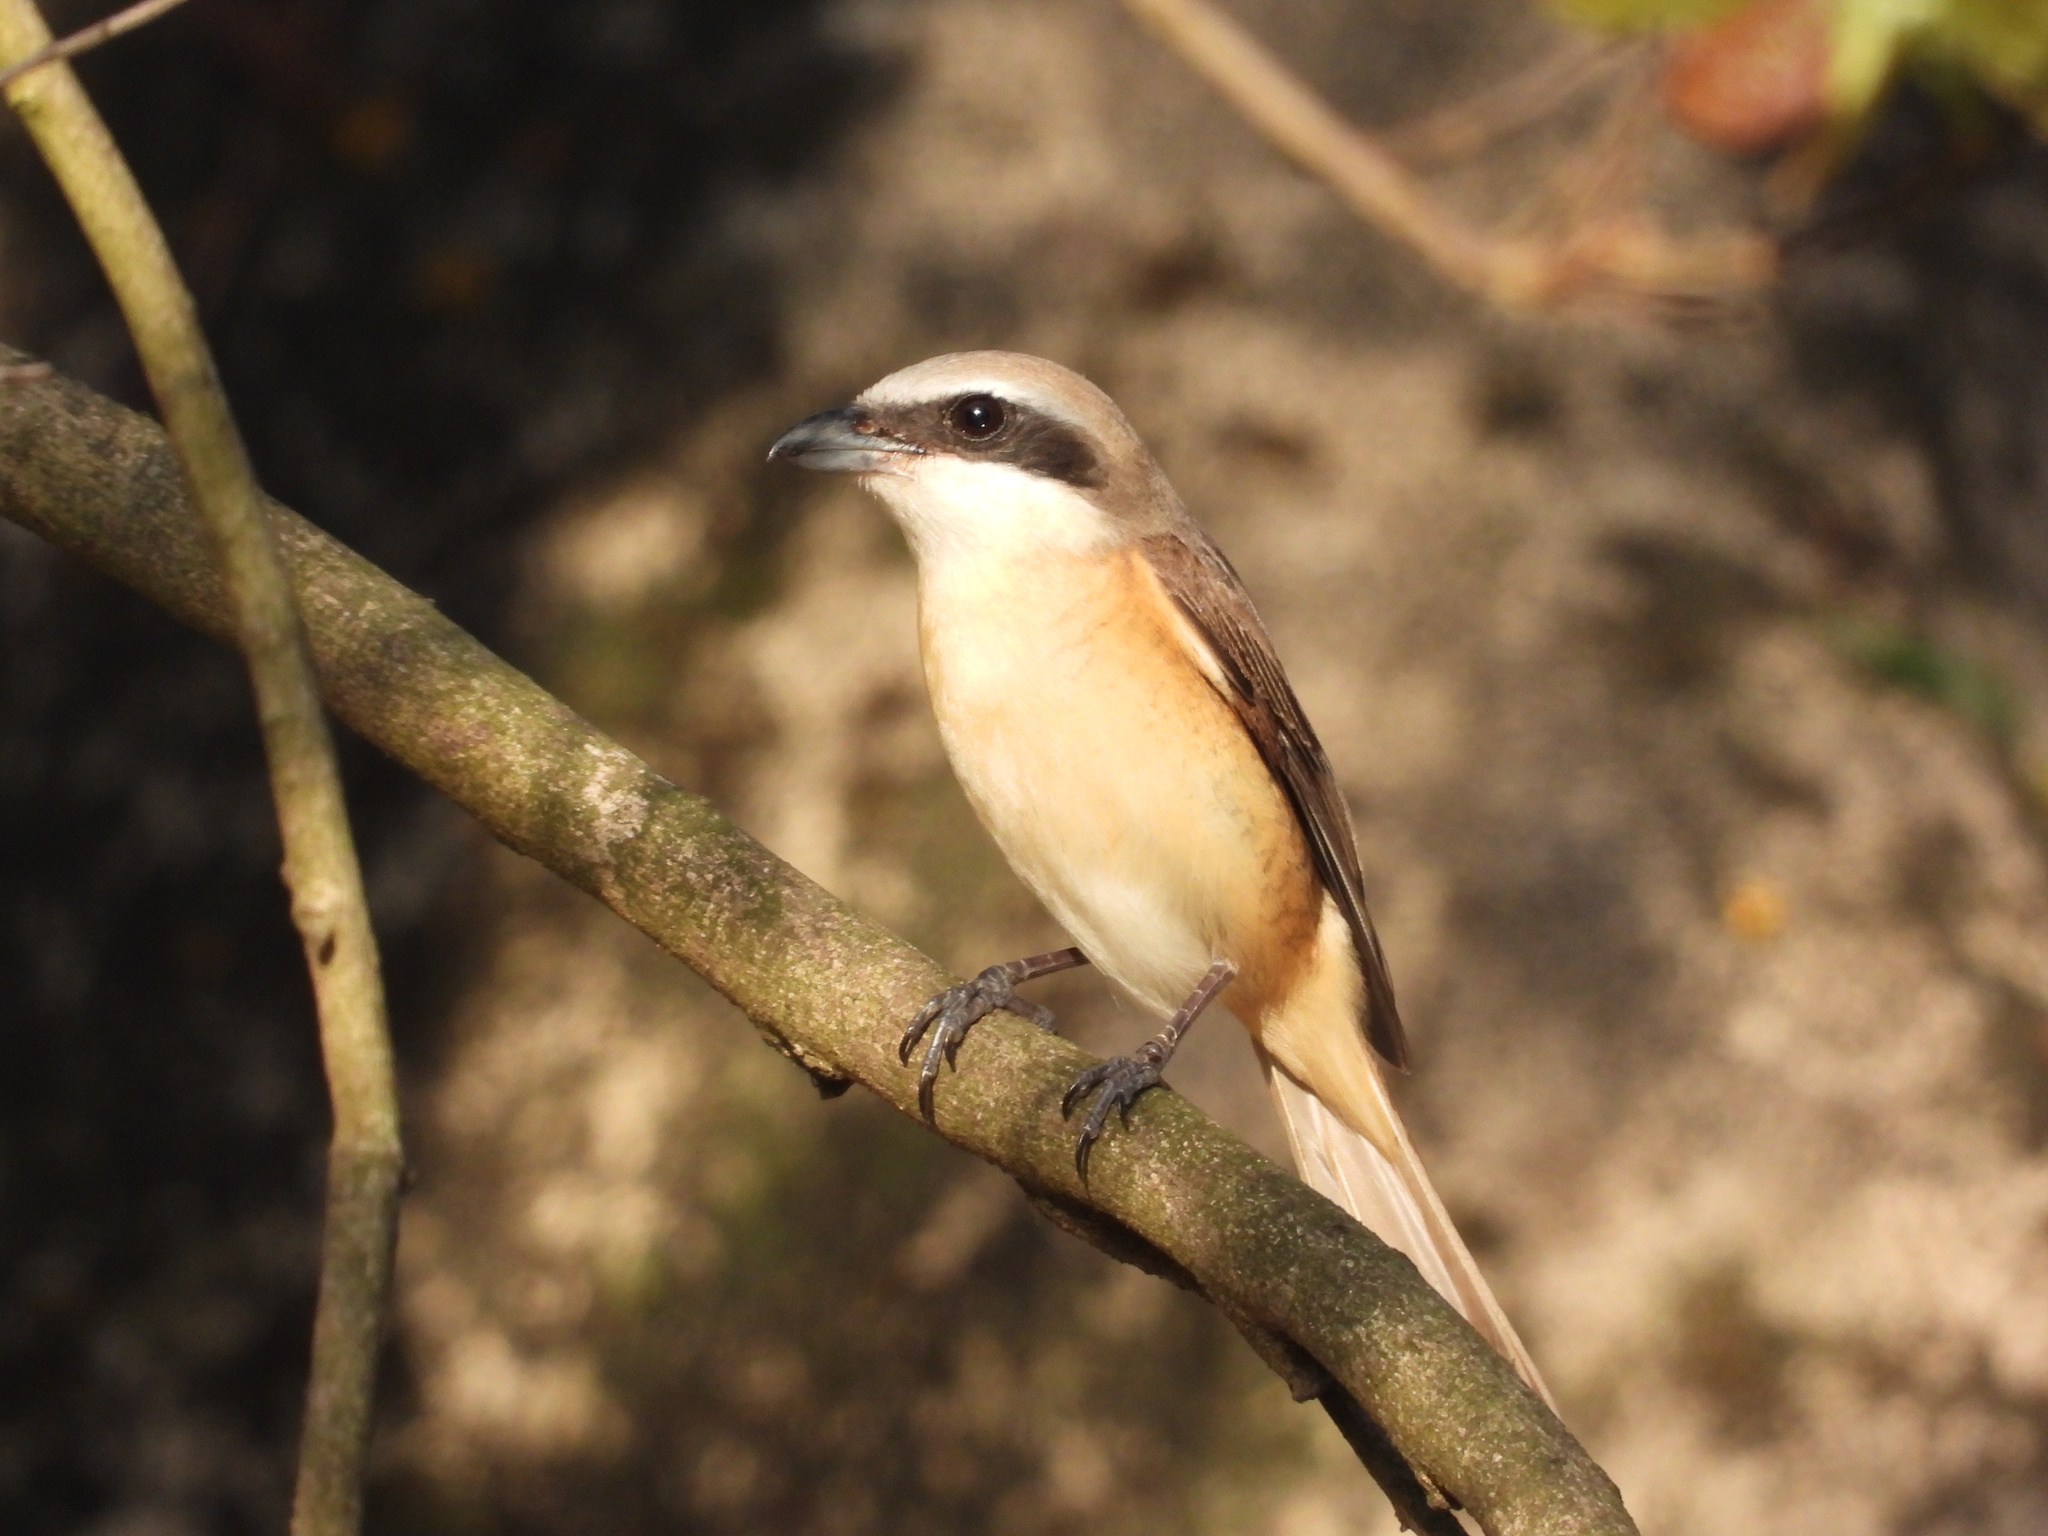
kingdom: Animalia
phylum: Chordata
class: Aves
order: Passeriformes
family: Laniidae
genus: Lanius
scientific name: Lanius cristatus
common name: Brown shrike
